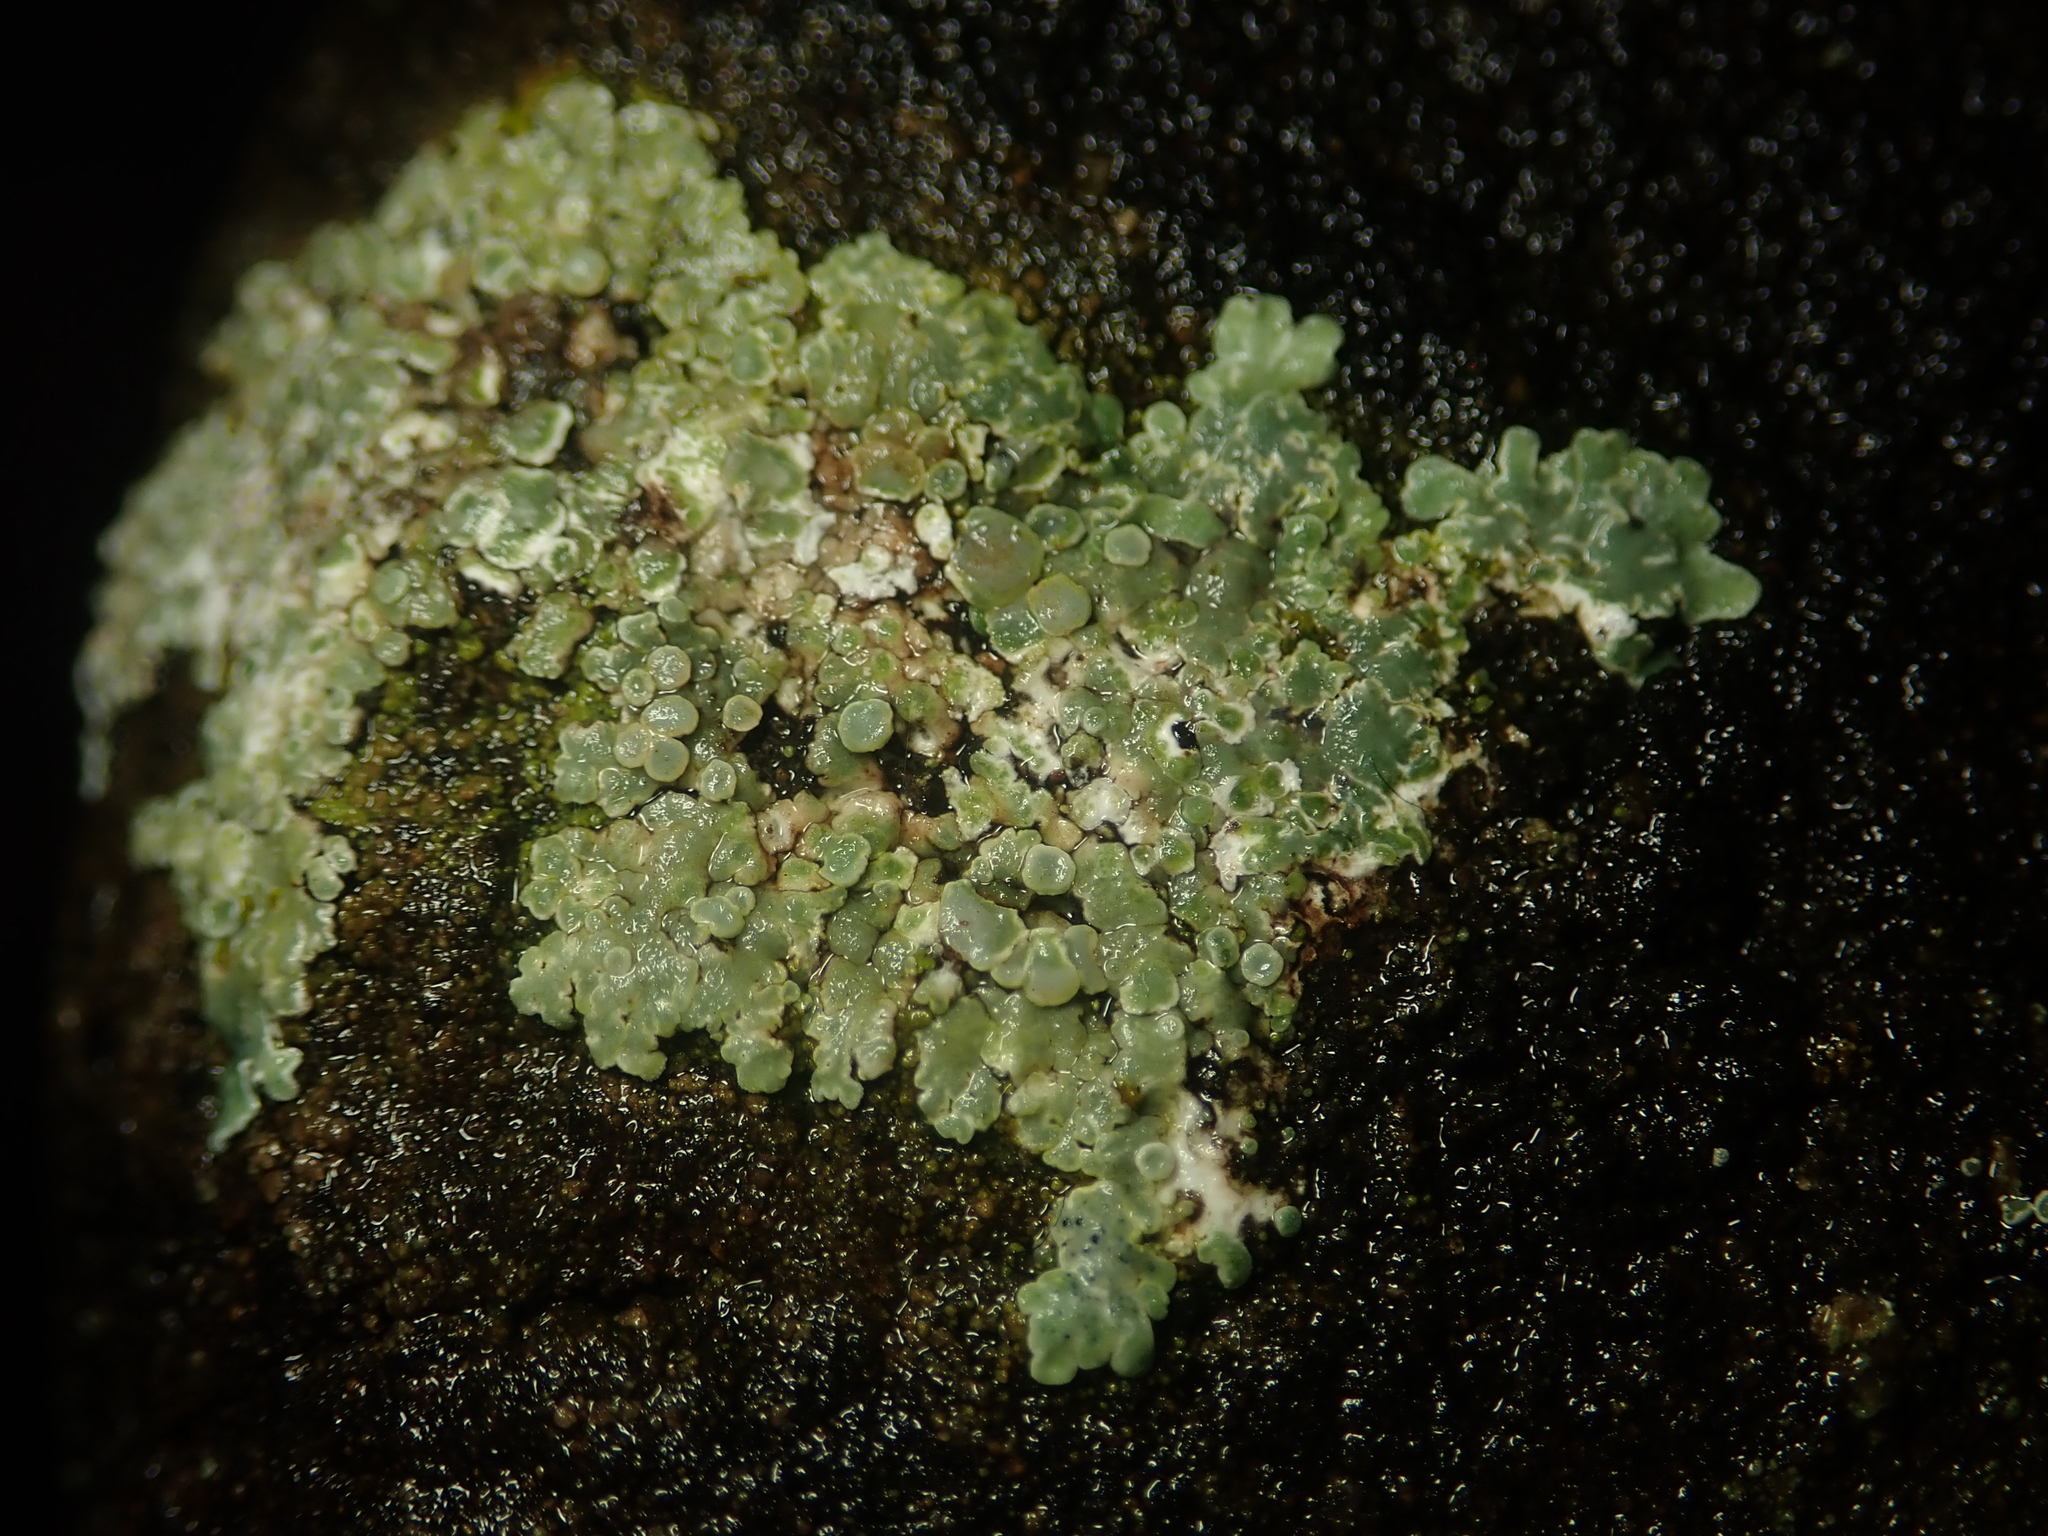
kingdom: Fungi
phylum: Ascomycota
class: Lecanoromycetes
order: Lecanorales
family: Lecanoraceae
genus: Protoparmeliopsis
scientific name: Protoparmeliopsis muralis
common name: Stonewall rim lichen
